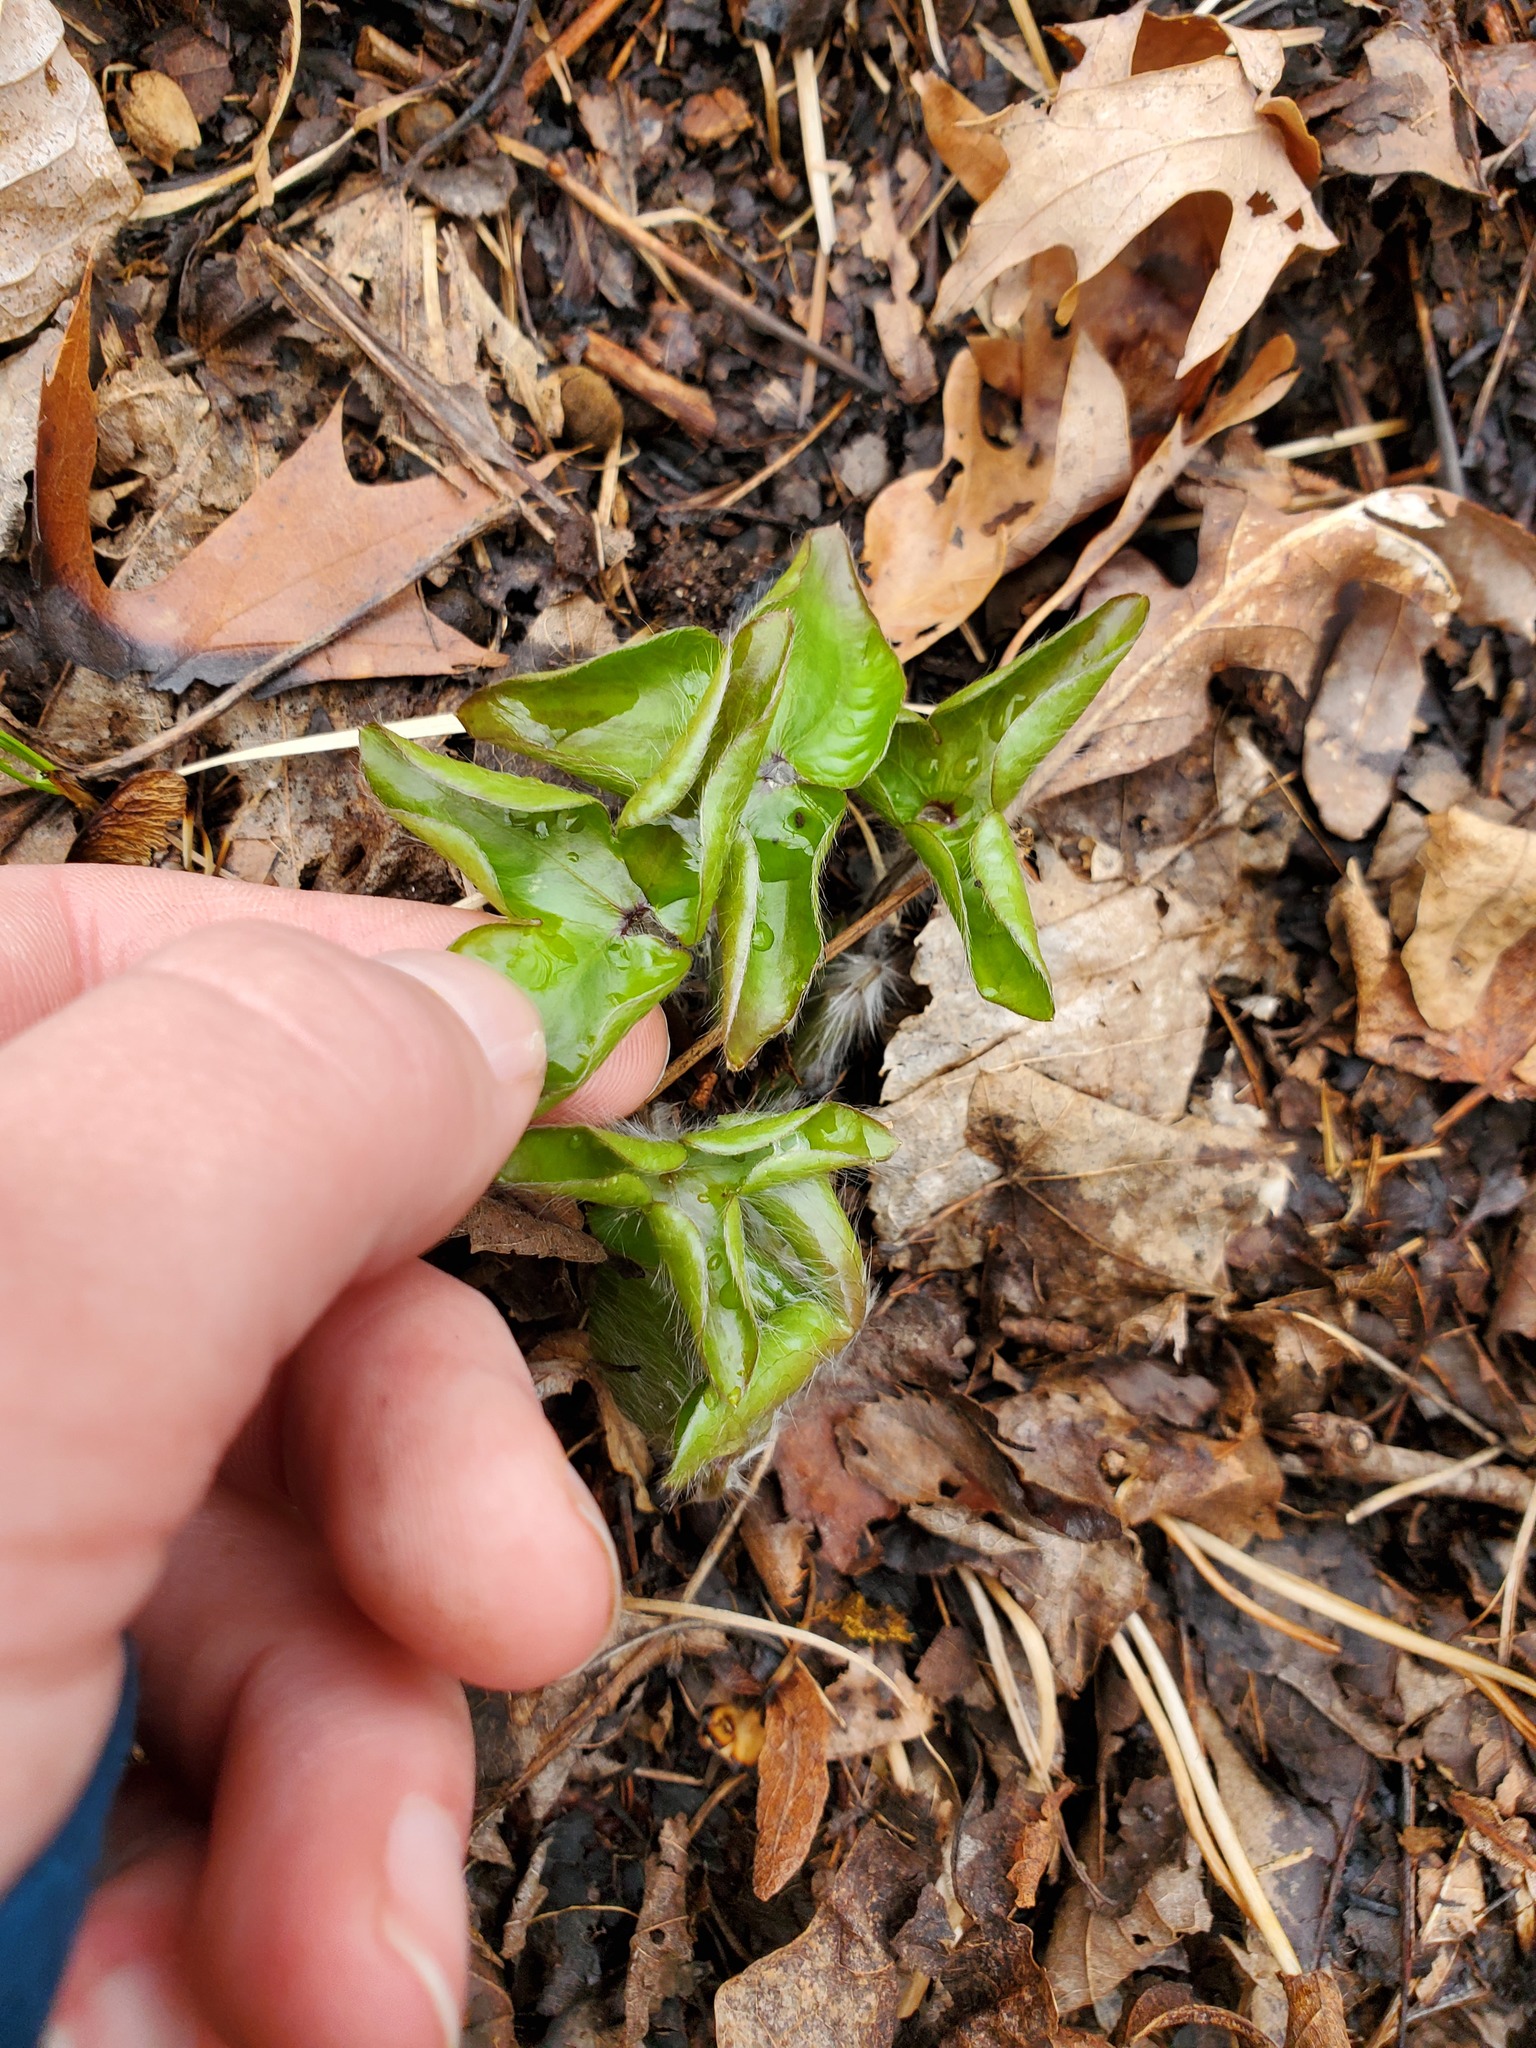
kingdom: Plantae
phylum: Tracheophyta
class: Magnoliopsida
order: Ranunculales
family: Ranunculaceae
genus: Hepatica
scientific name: Hepatica acutiloba
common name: Sharp-lobed hepatica
